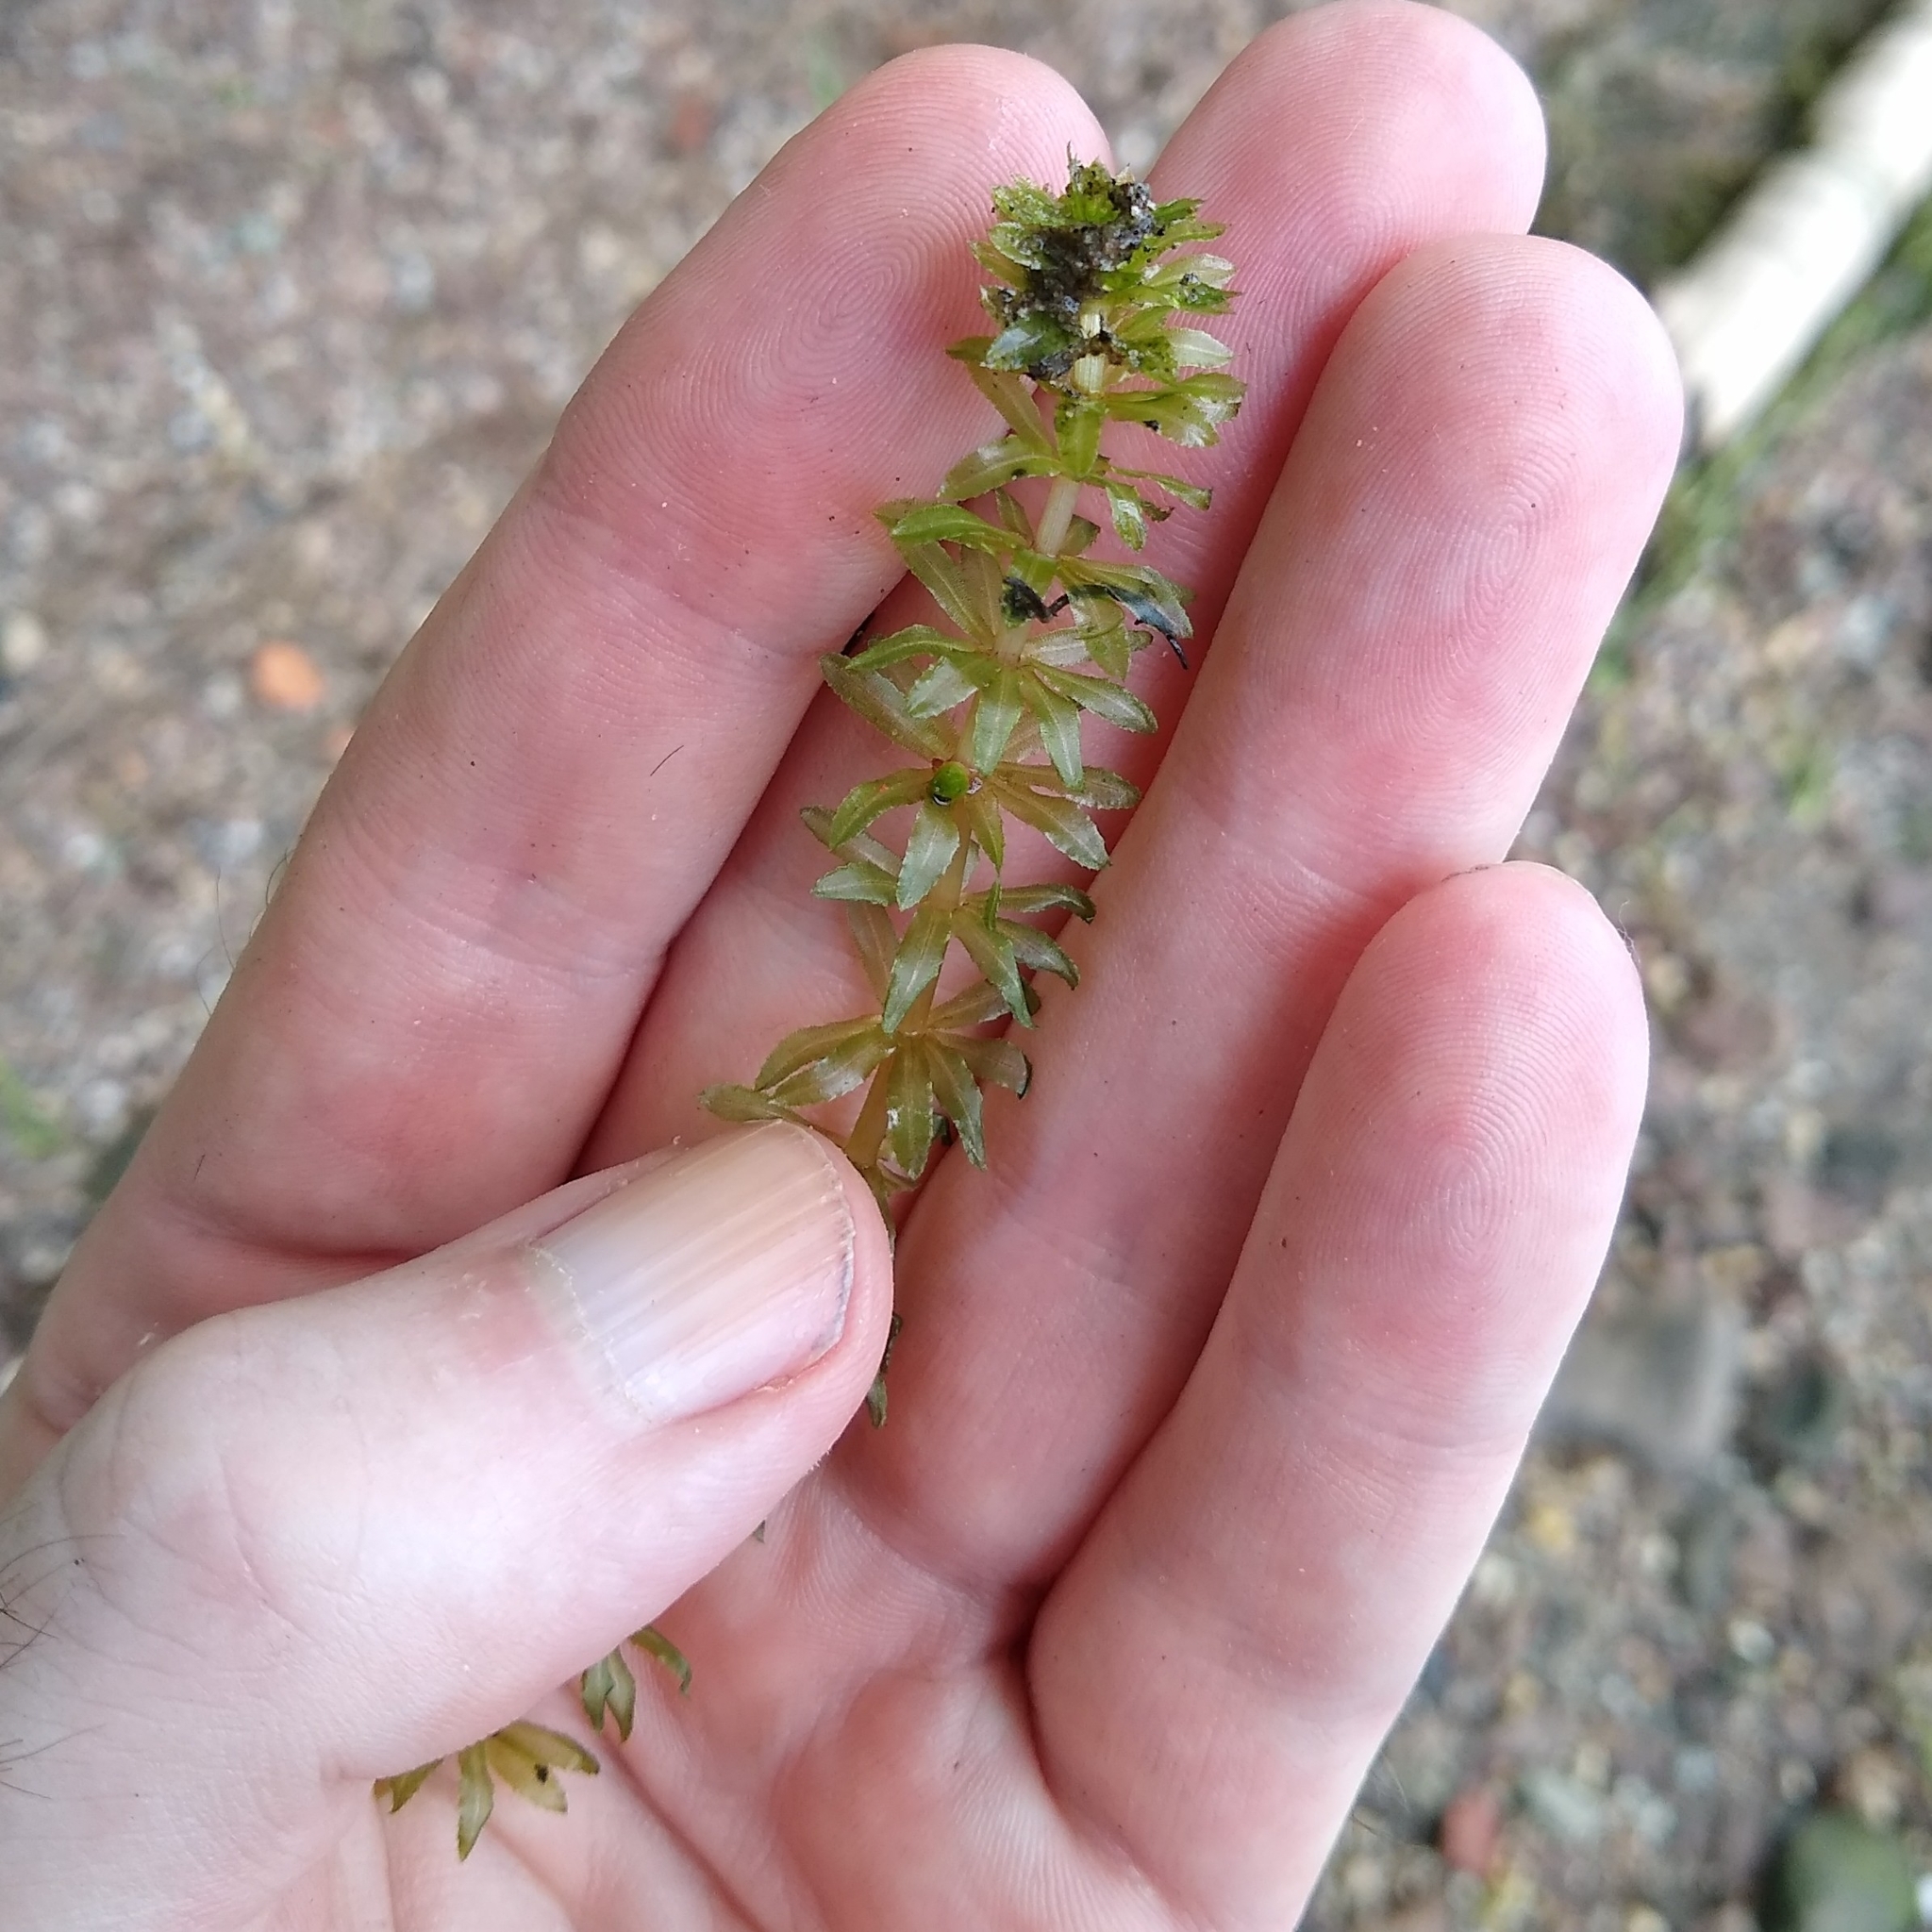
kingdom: Plantae
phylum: Tracheophyta
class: Liliopsida
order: Alismatales
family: Hydrocharitaceae
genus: Hydrilla
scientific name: Hydrilla verticillata
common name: Florida-elodea
